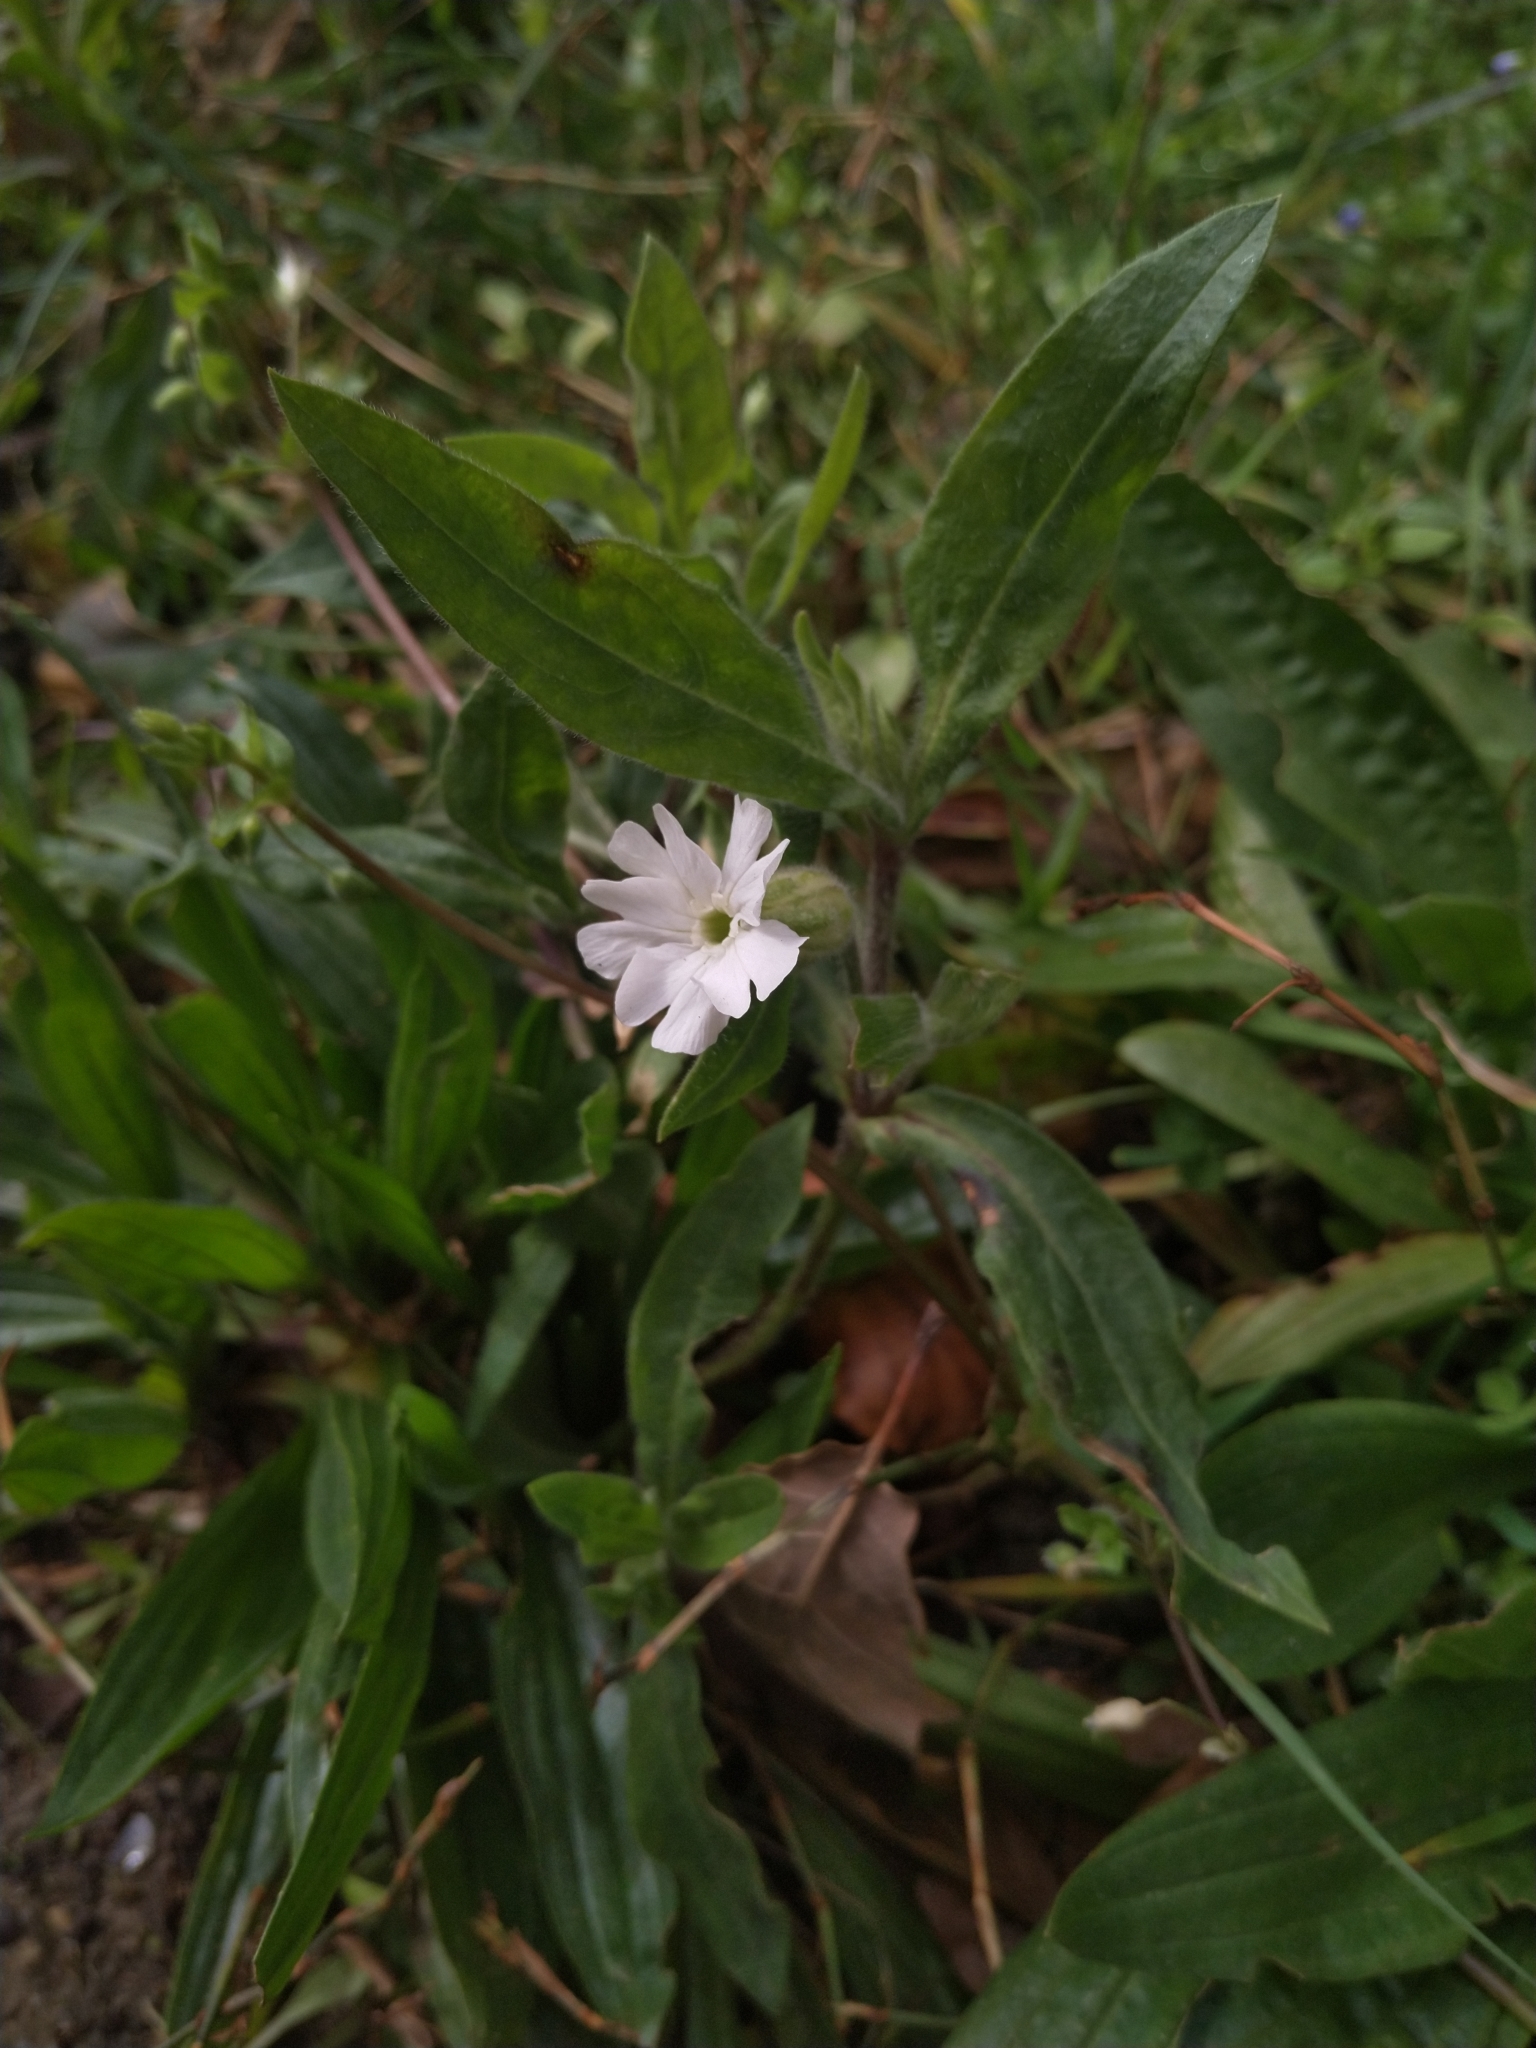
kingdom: Plantae
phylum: Tracheophyta
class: Magnoliopsida
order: Caryophyllales
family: Caryophyllaceae
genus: Silene
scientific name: Silene latifolia
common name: White campion
